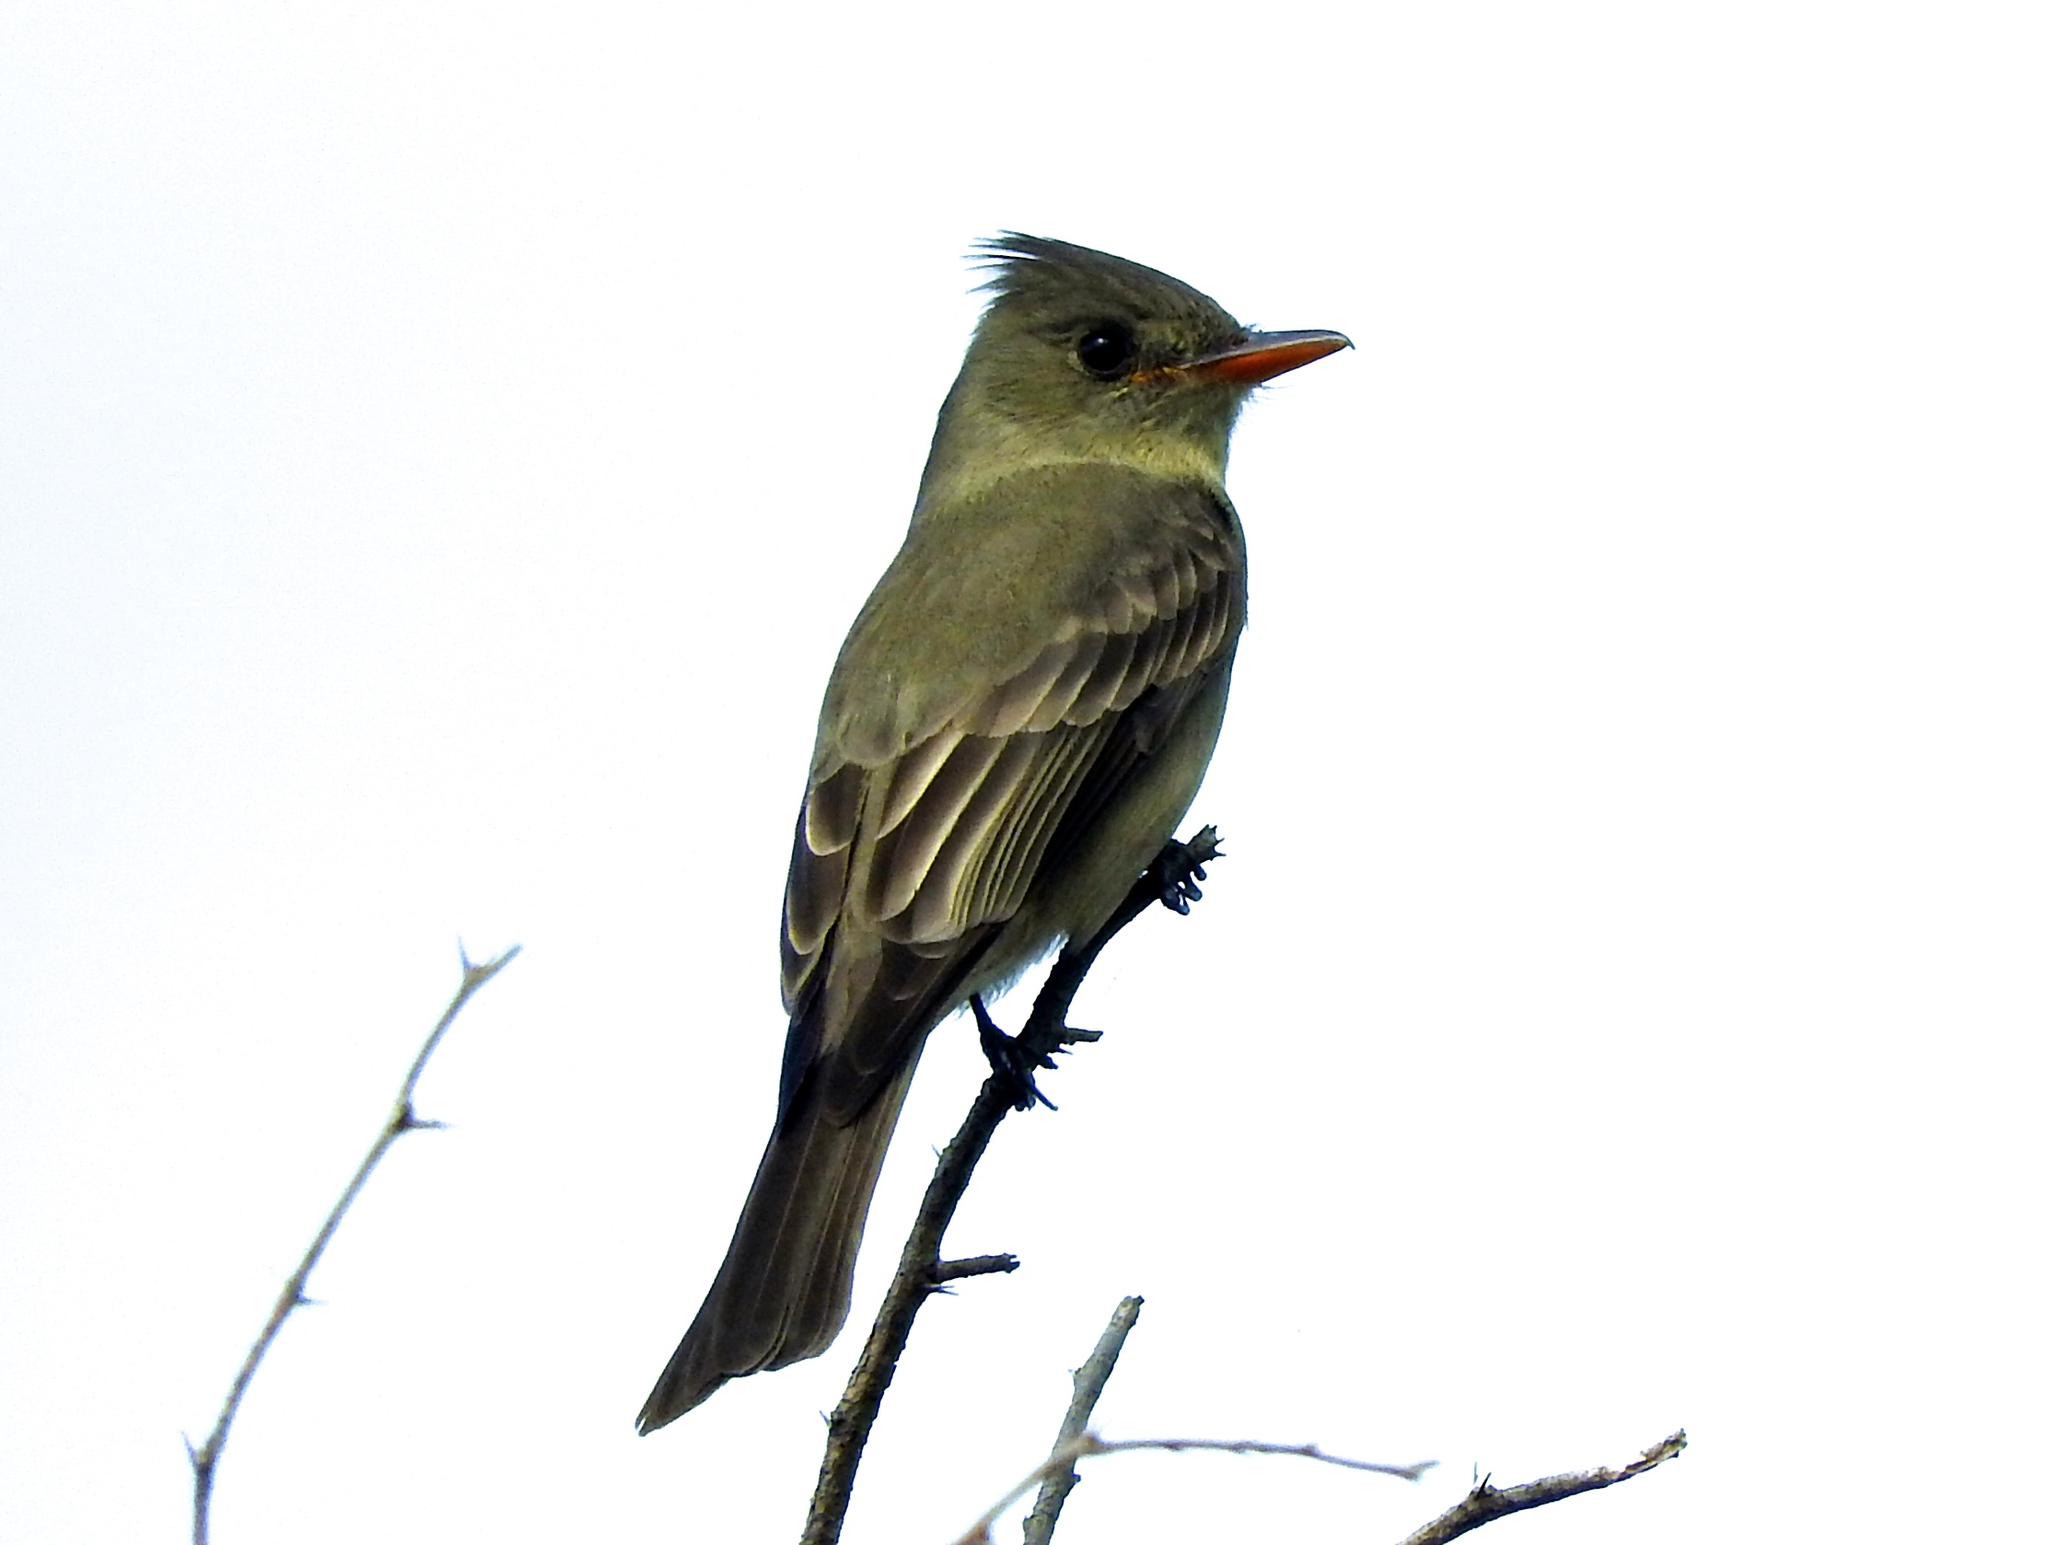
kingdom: Animalia
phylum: Chordata
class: Aves
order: Passeriformes
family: Tyrannidae
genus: Contopus
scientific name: Contopus pertinax
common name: Greater pewee
